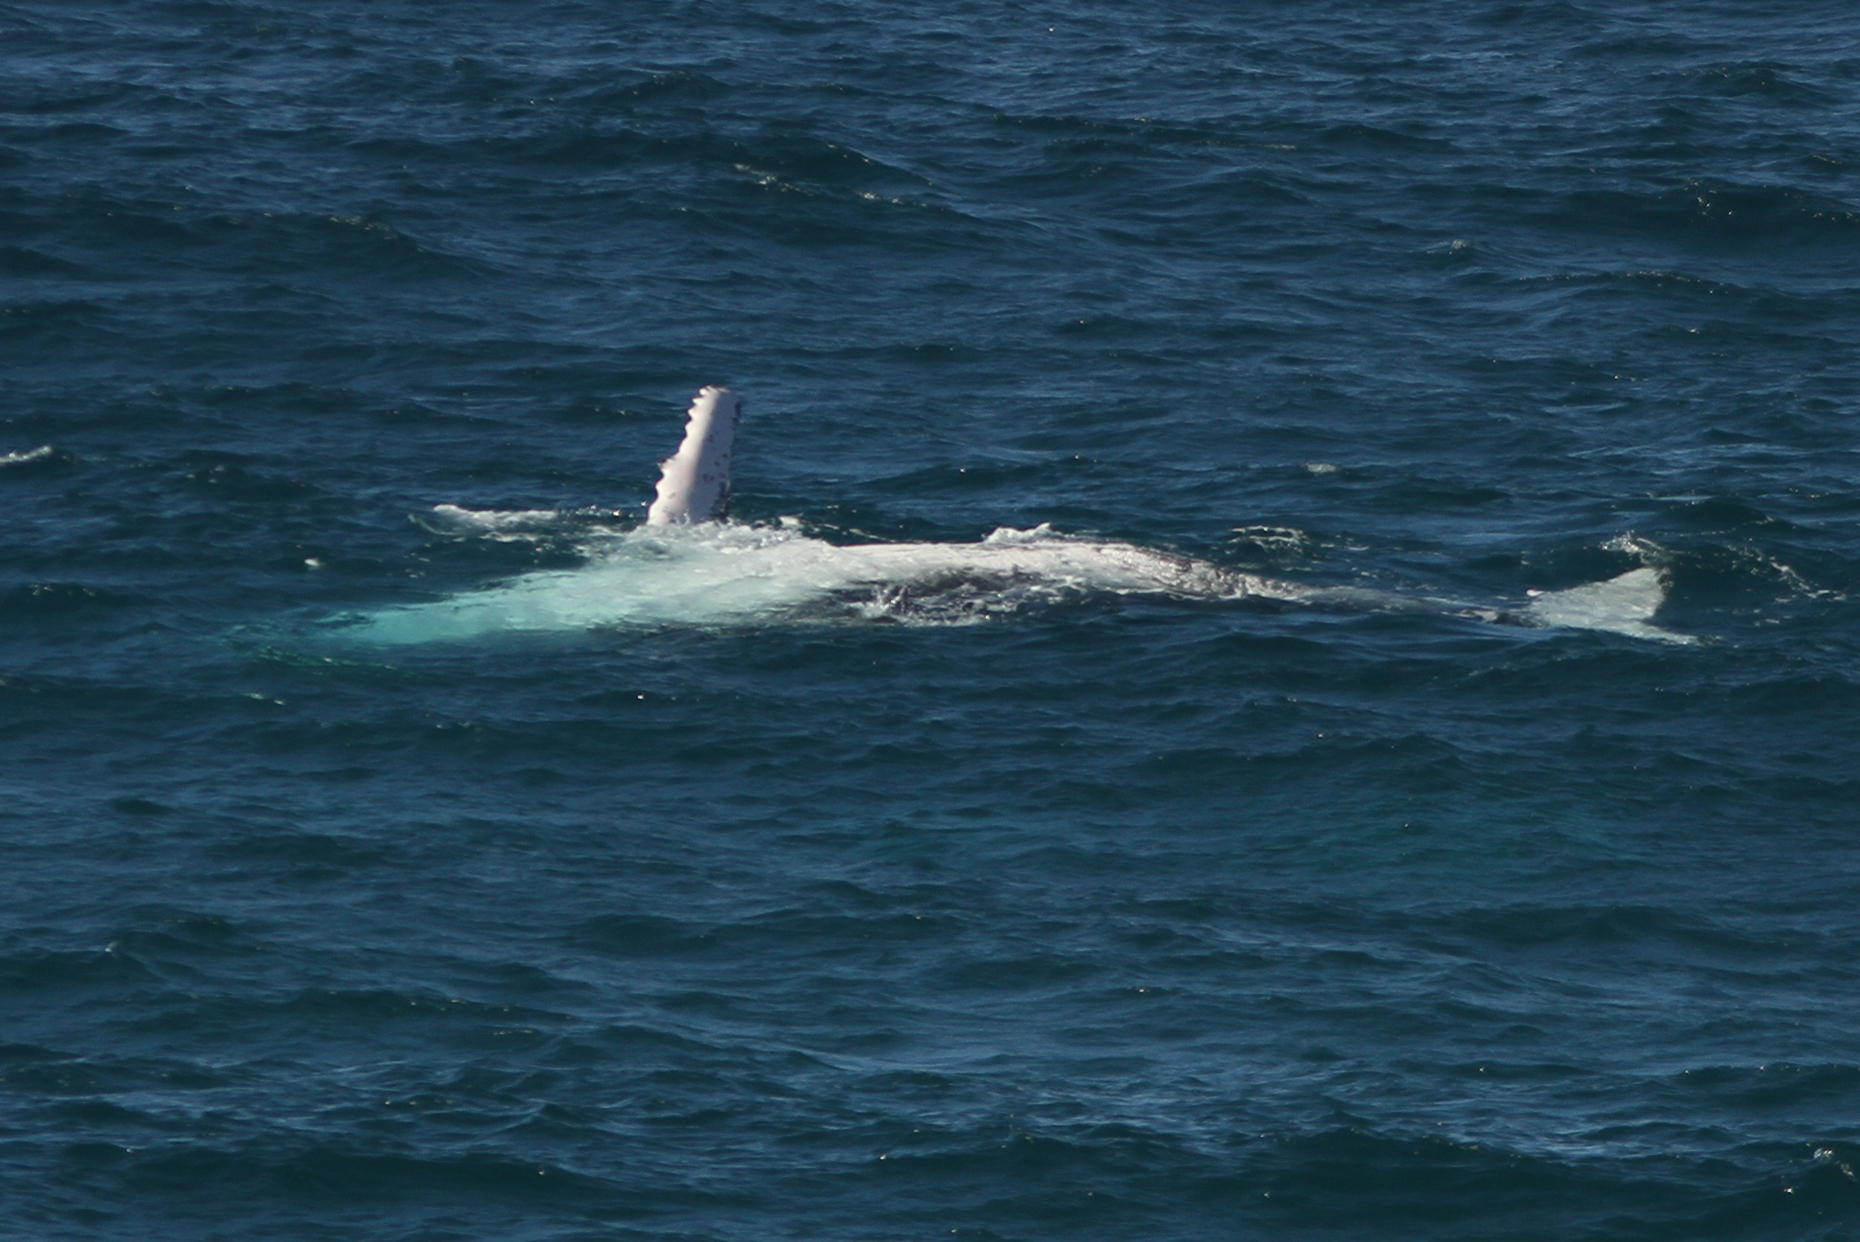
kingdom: Animalia
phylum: Chordata
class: Mammalia
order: Cetacea
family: Balaenopteridae
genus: Megaptera
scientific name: Megaptera novaeangliae
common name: Humpback whale
